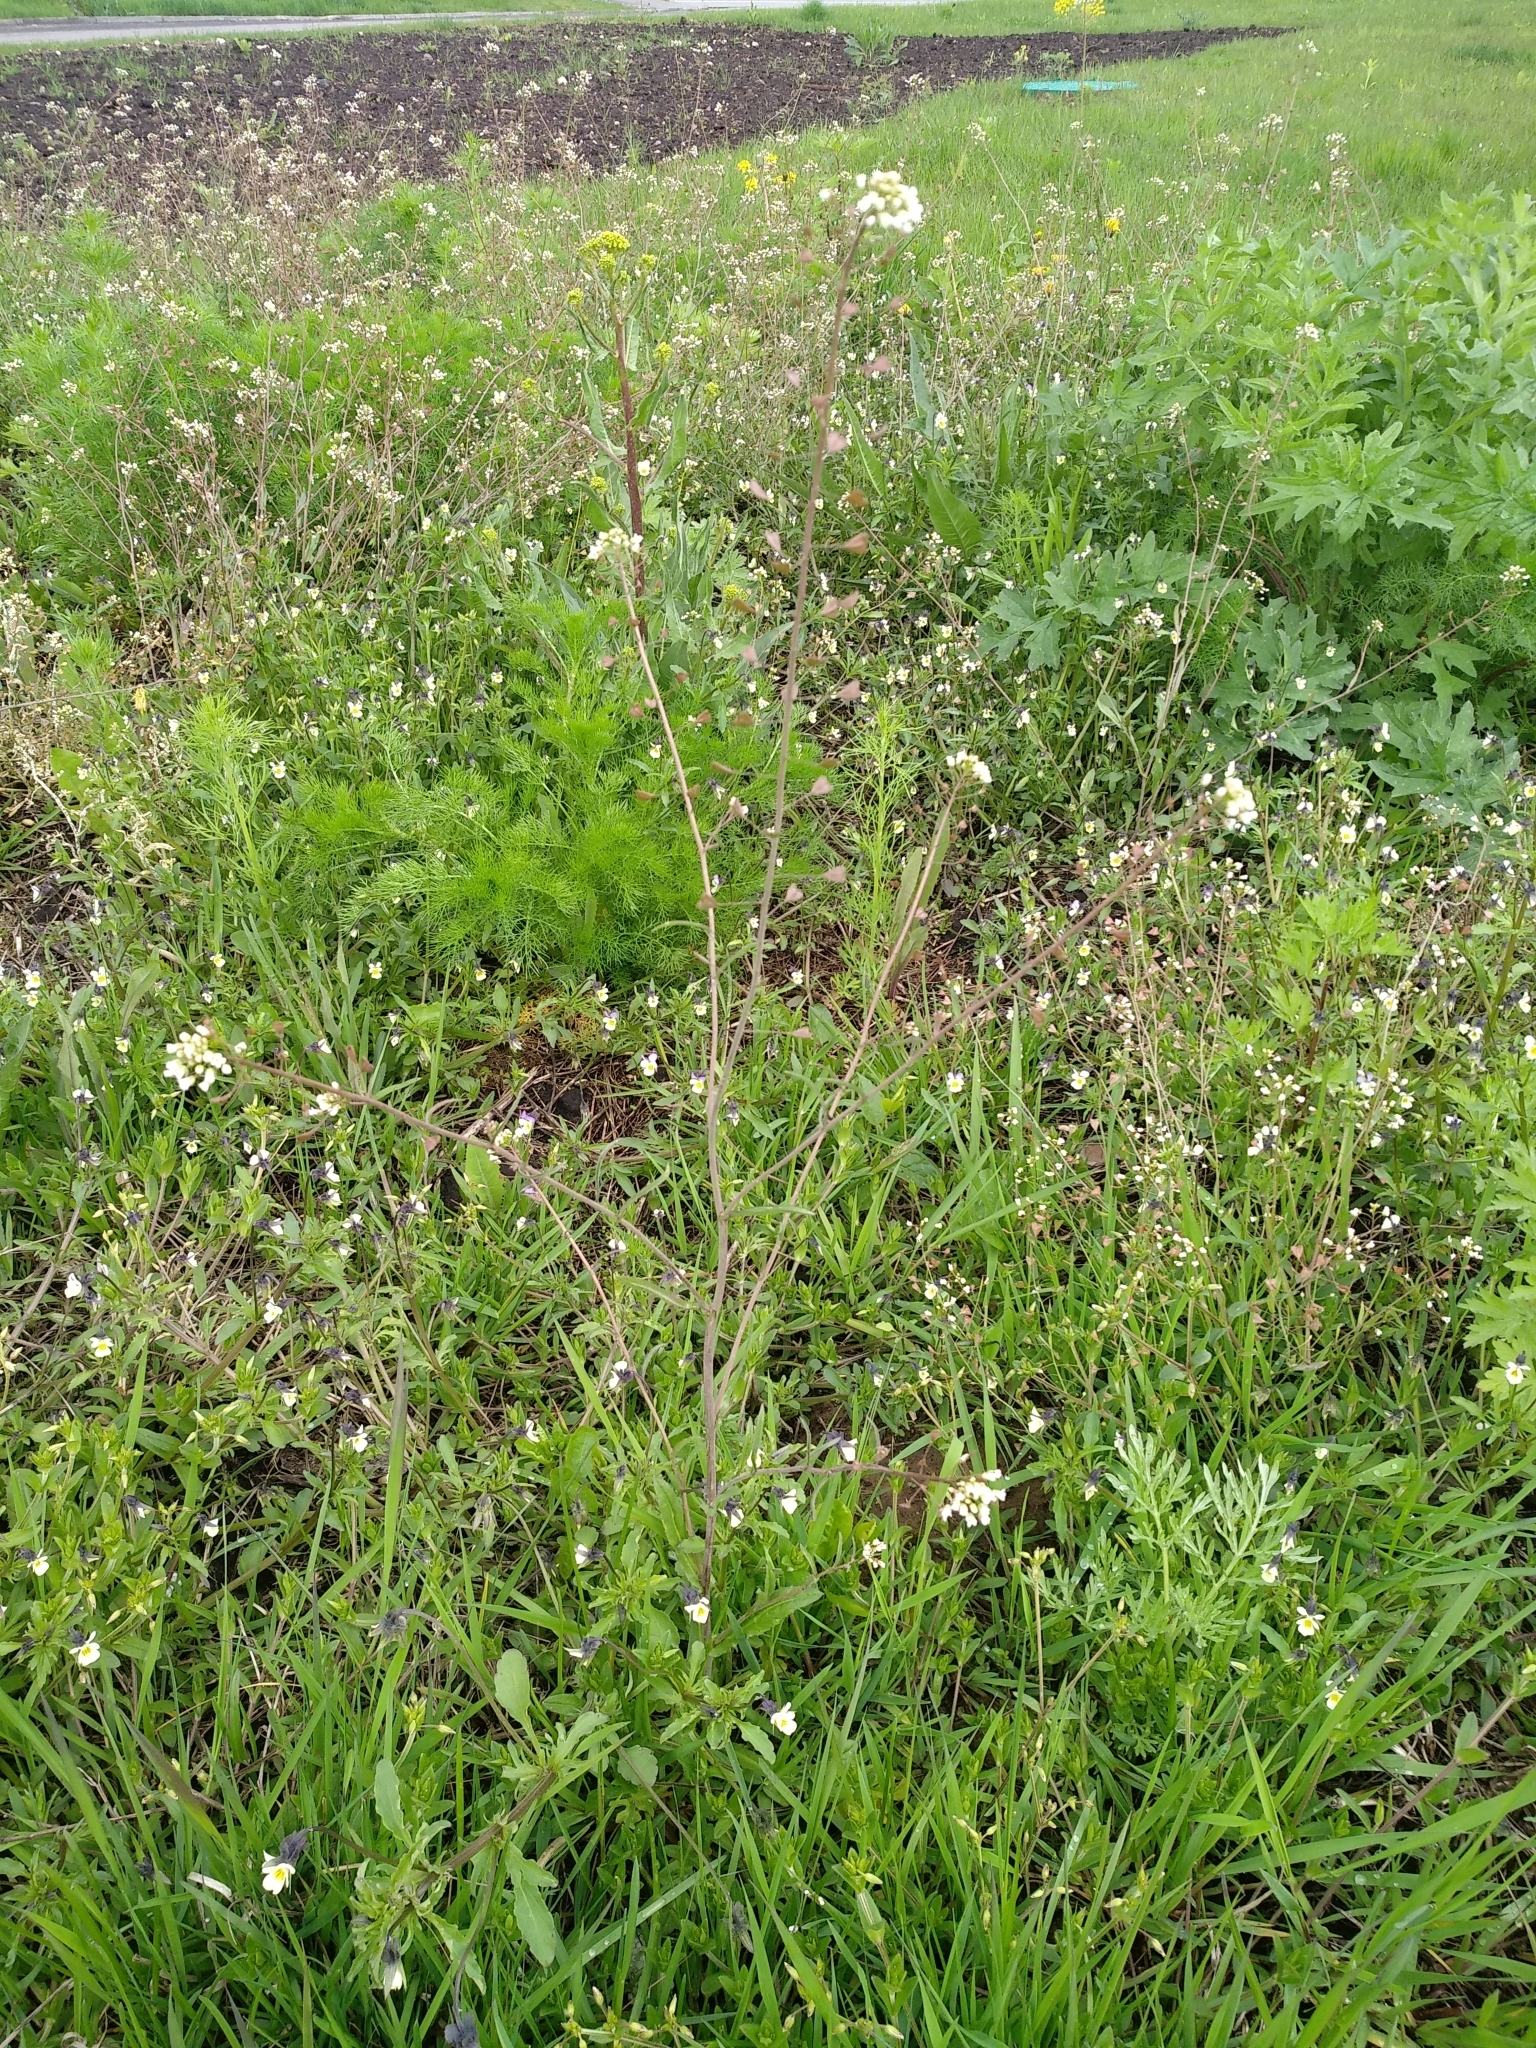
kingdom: Plantae
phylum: Tracheophyta
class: Magnoliopsida
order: Brassicales
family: Brassicaceae
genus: Capsella
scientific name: Capsella bursa-pastoris
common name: Shepherd's purse
